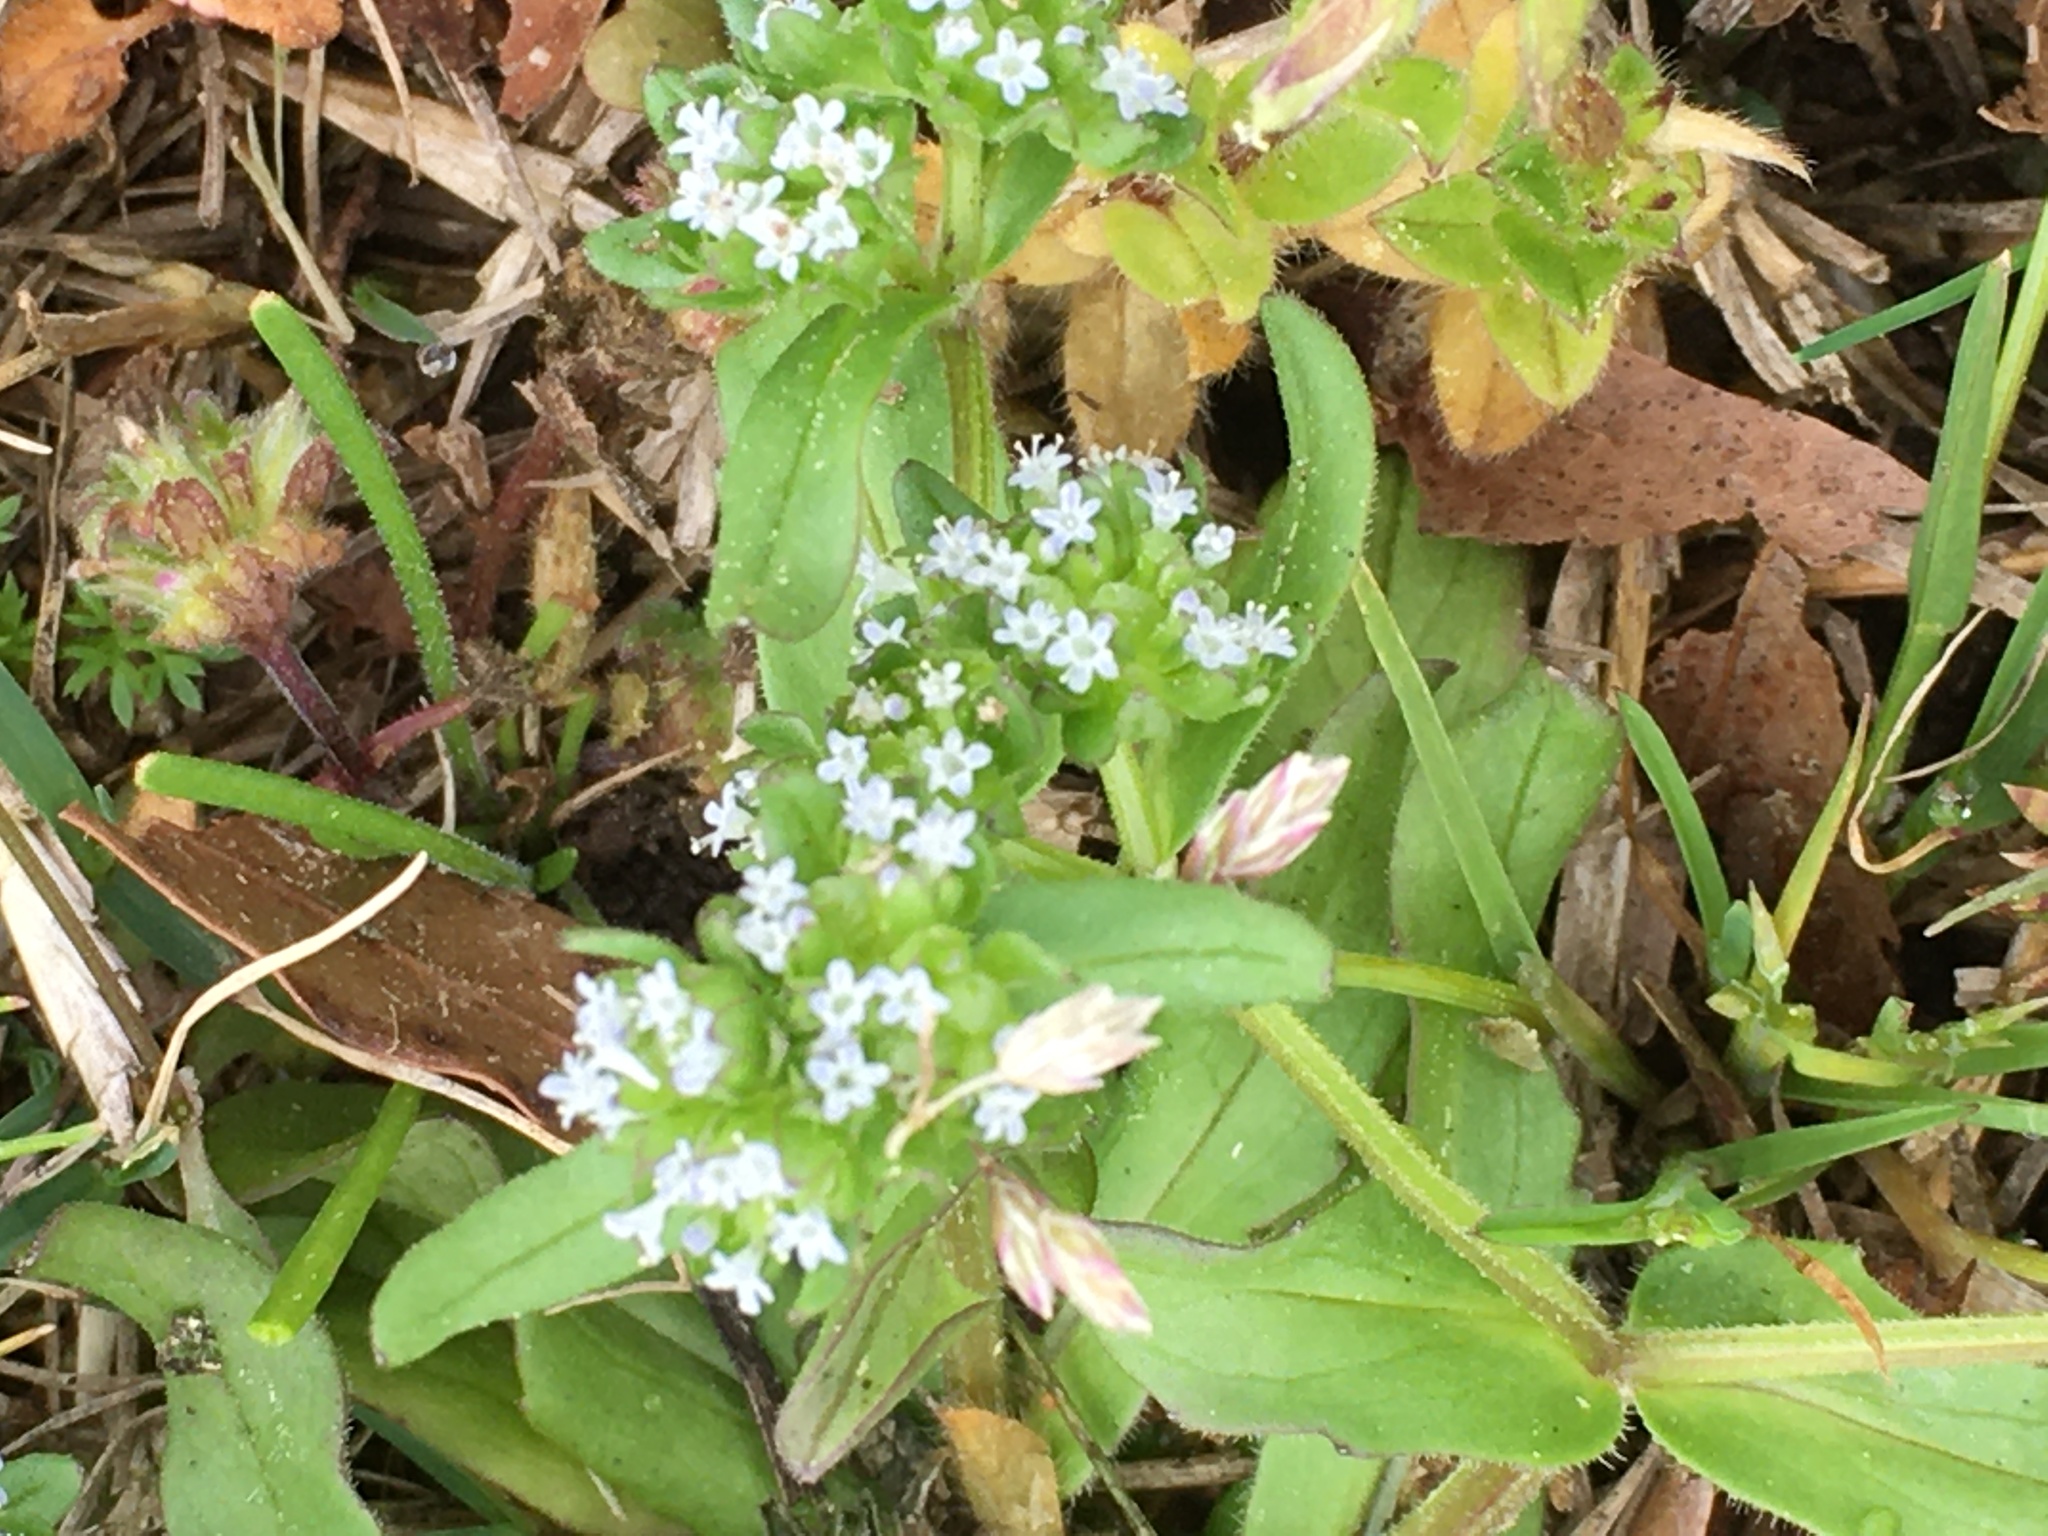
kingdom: Plantae
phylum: Tracheophyta
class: Magnoliopsida
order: Dipsacales
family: Caprifoliaceae
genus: Valerianella
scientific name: Valerianella locusta
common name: Common cornsalad
